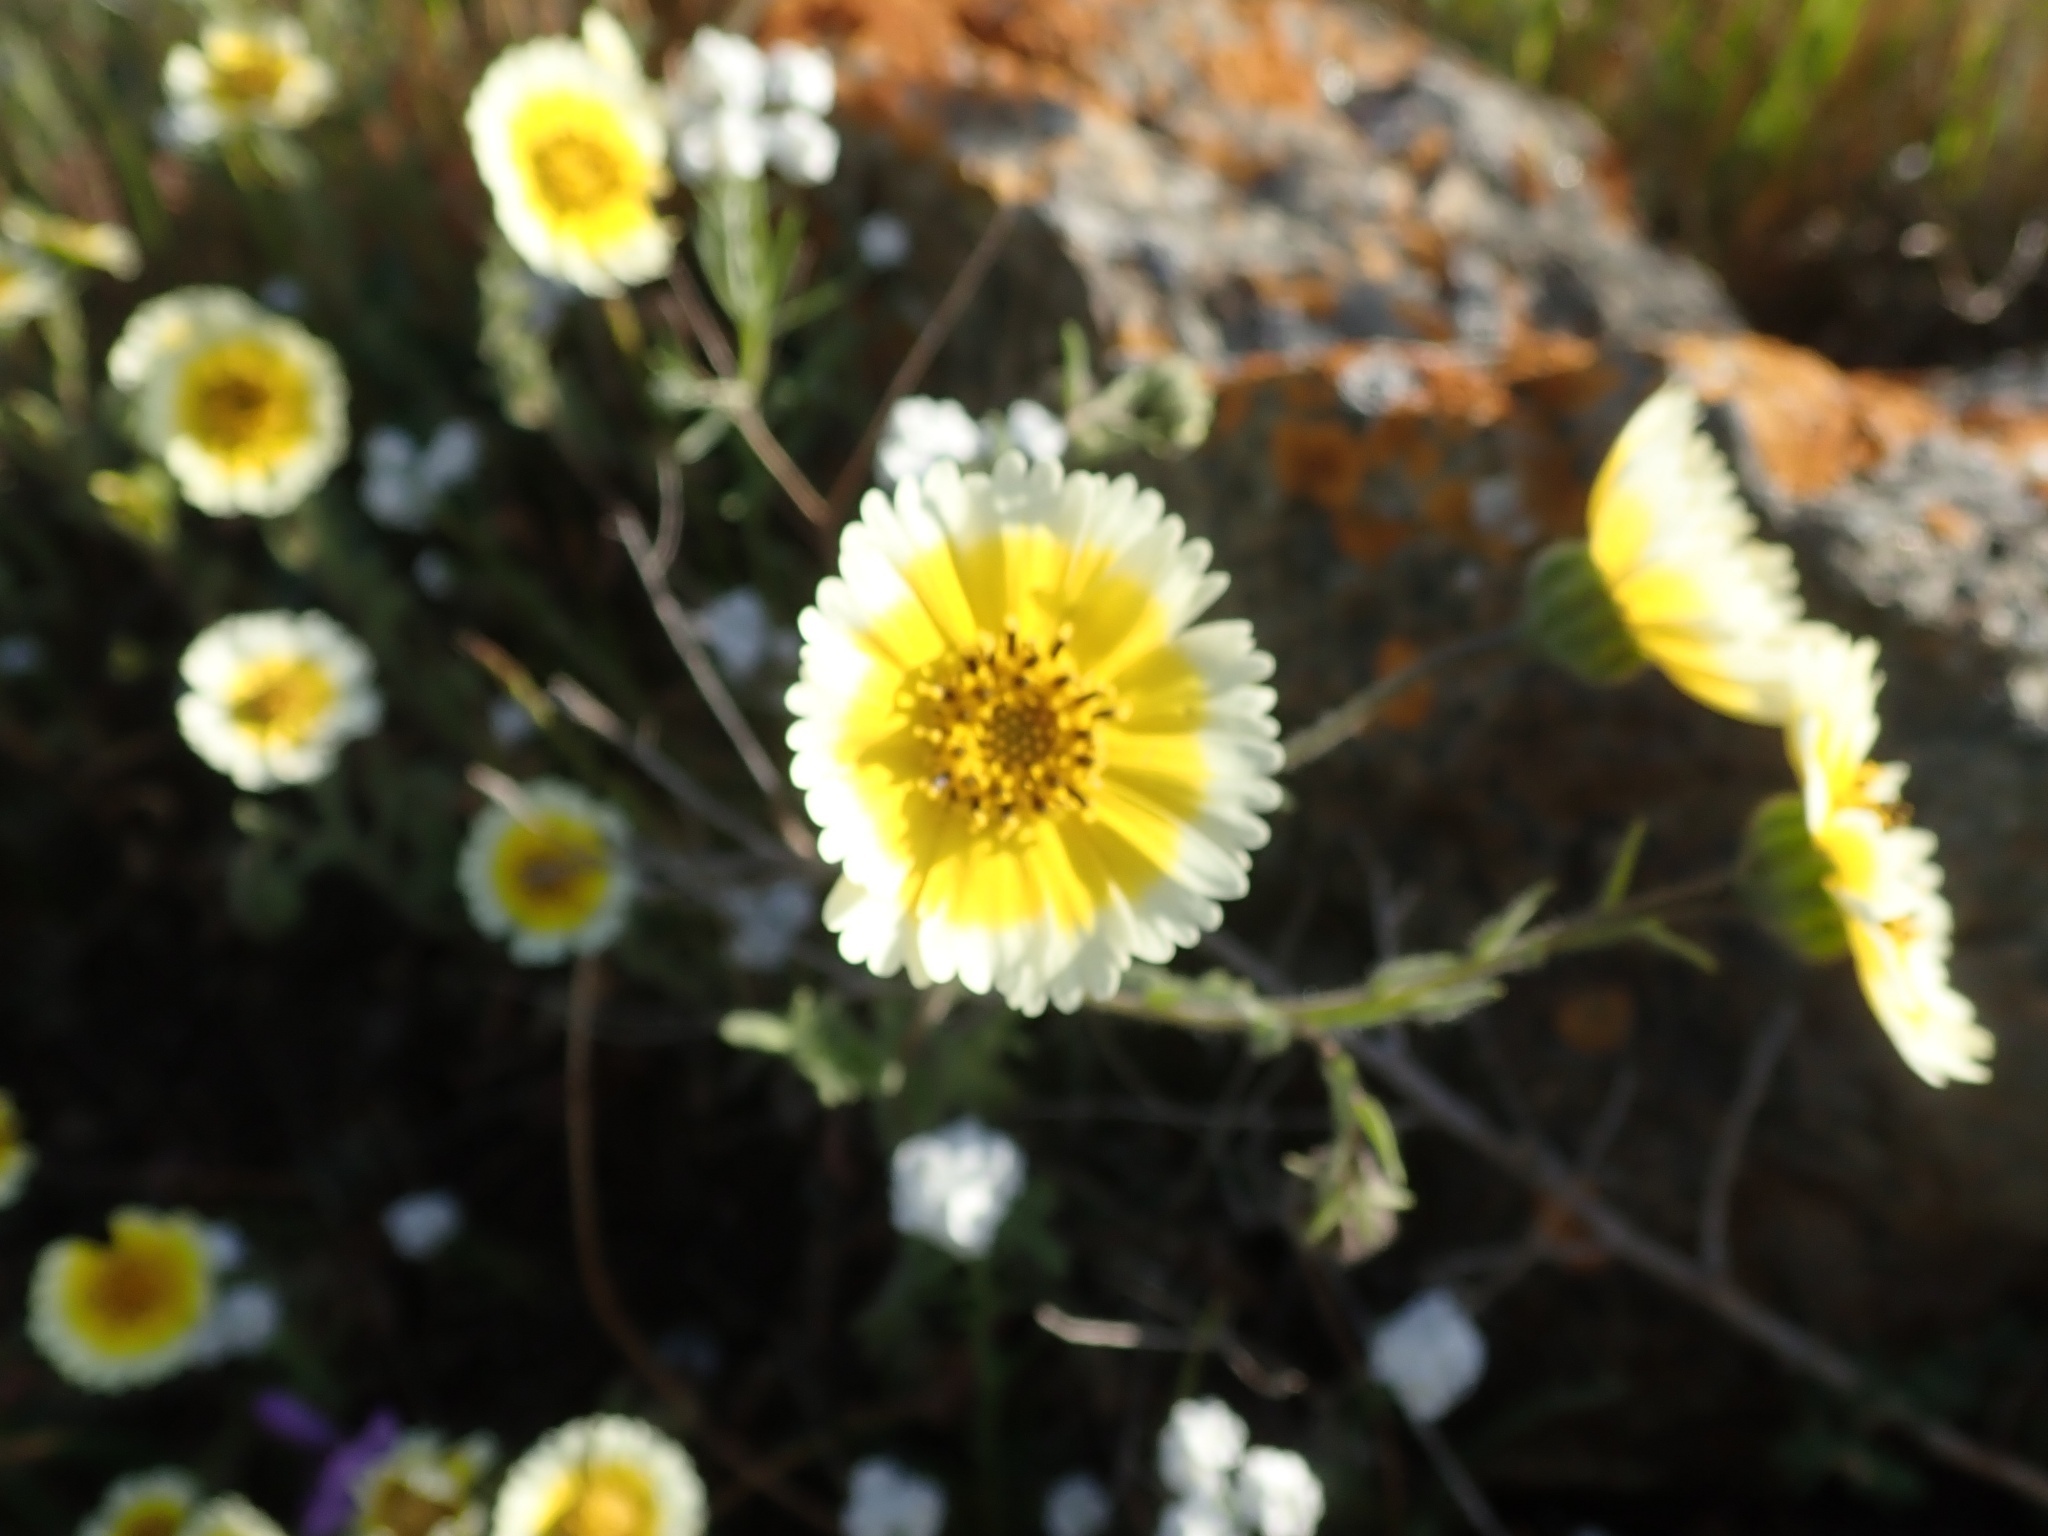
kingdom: Plantae
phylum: Tracheophyta
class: Magnoliopsida
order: Asterales
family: Asteraceae
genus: Layia
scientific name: Layia gaillardioides
